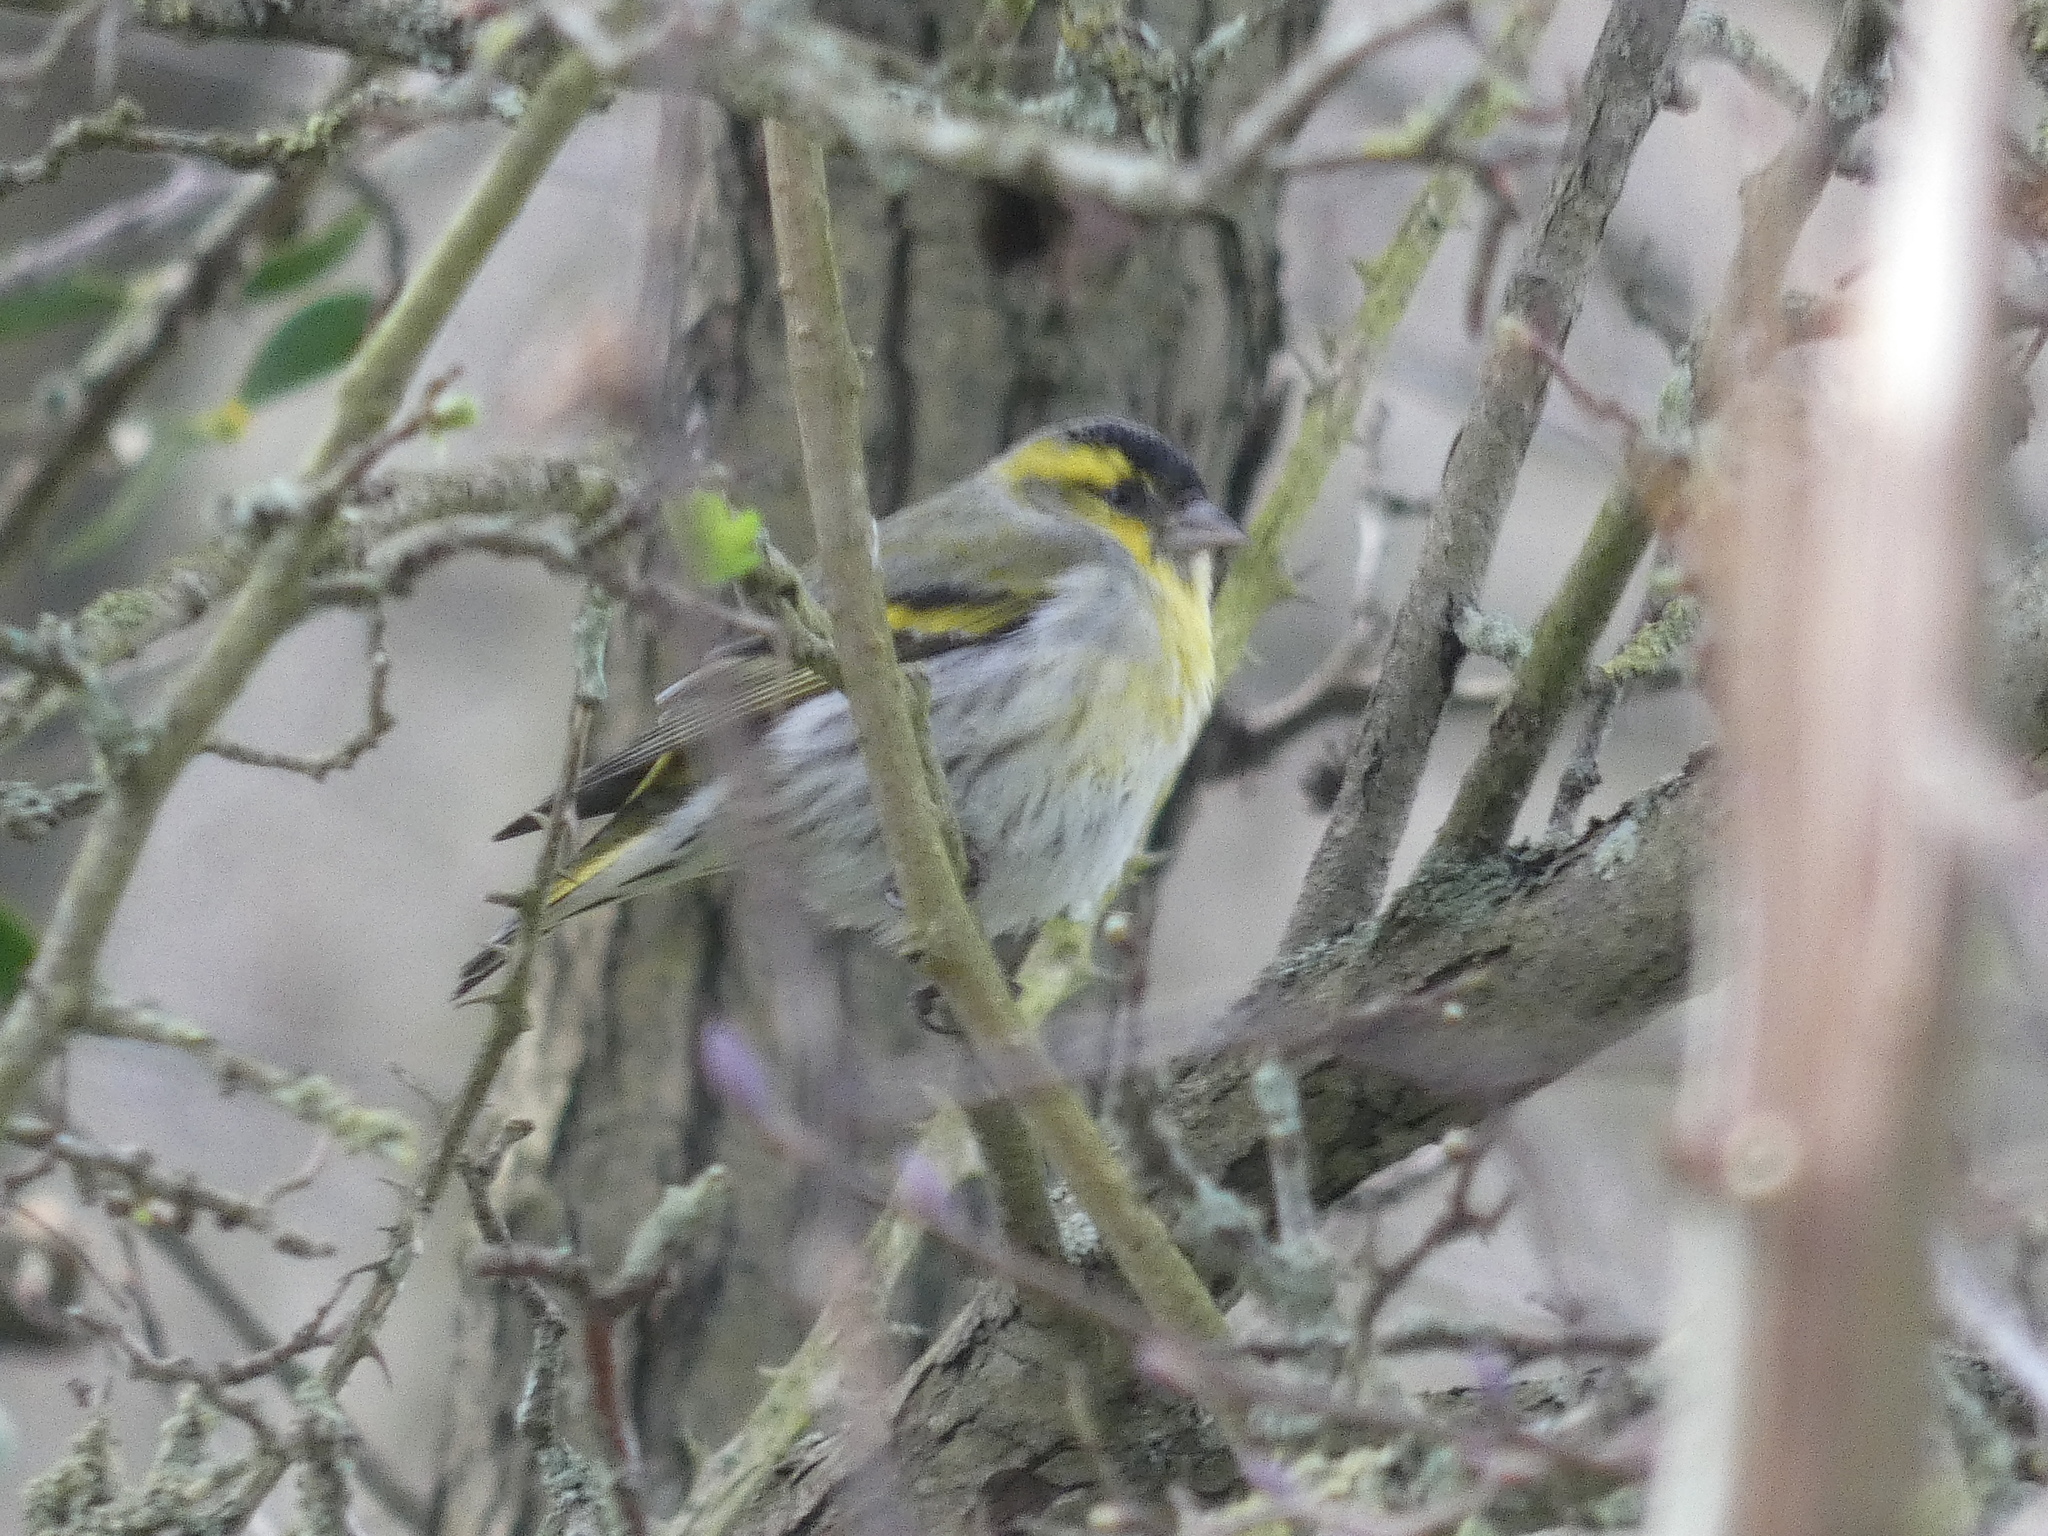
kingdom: Animalia
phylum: Chordata
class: Aves
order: Passeriformes
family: Fringillidae
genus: Spinus
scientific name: Spinus spinus
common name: Eurasian siskin
